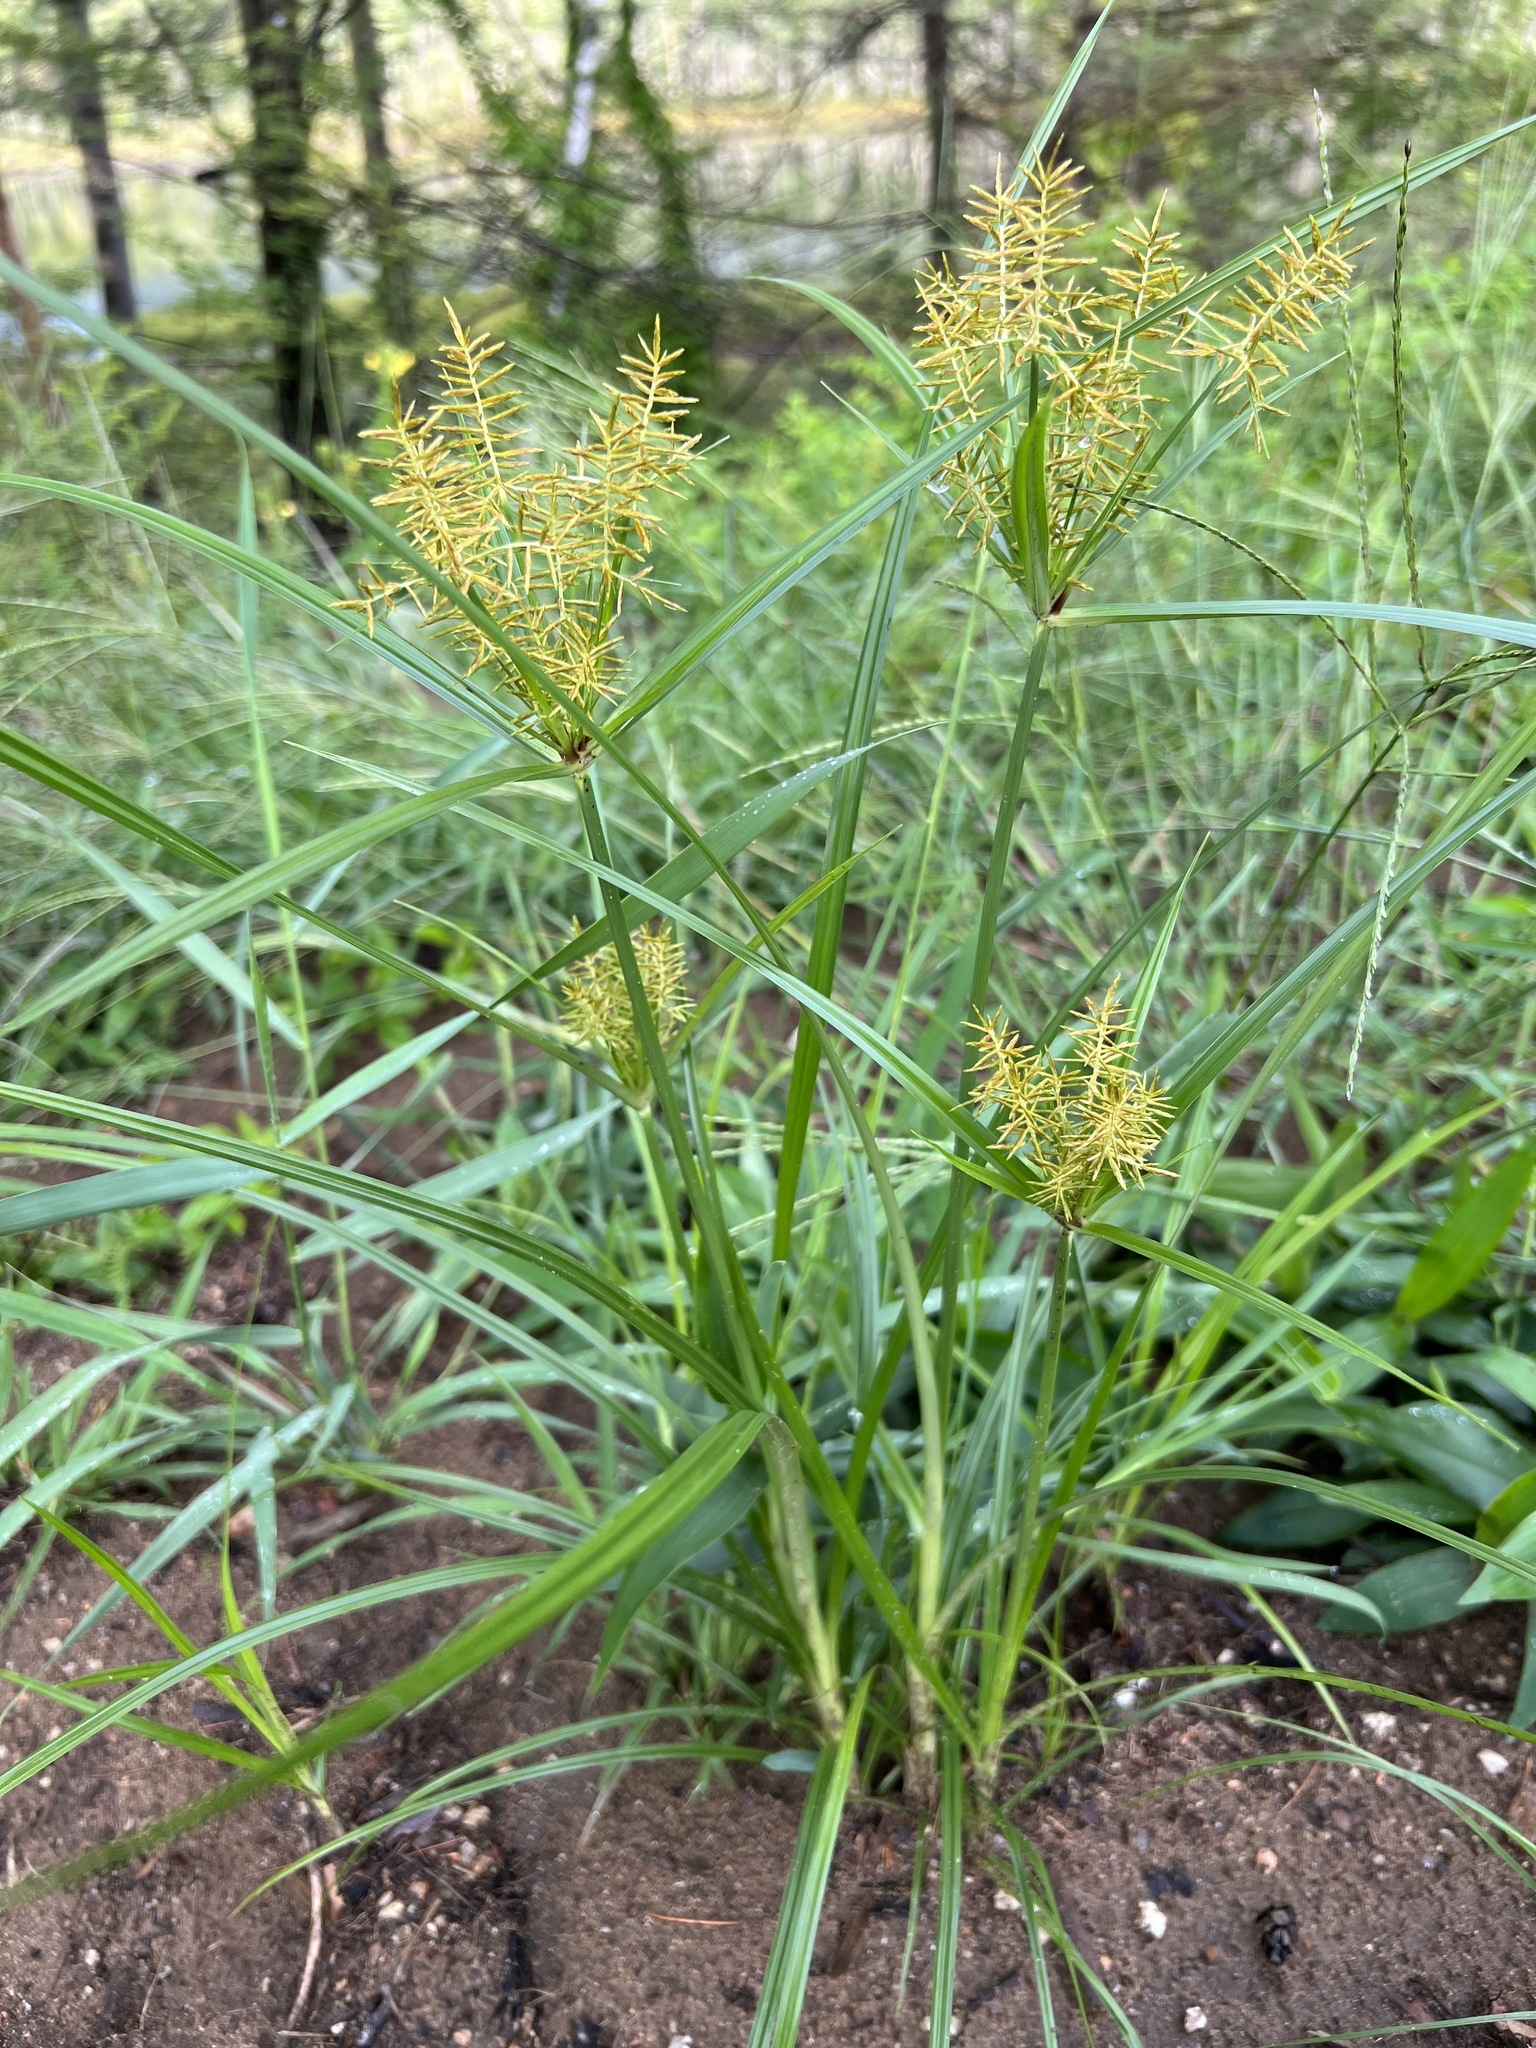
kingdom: Plantae
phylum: Tracheophyta
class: Liliopsida
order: Poales
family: Cyperaceae
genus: Cyperus
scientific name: Cyperus esculentus
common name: Yellow nutsedge
